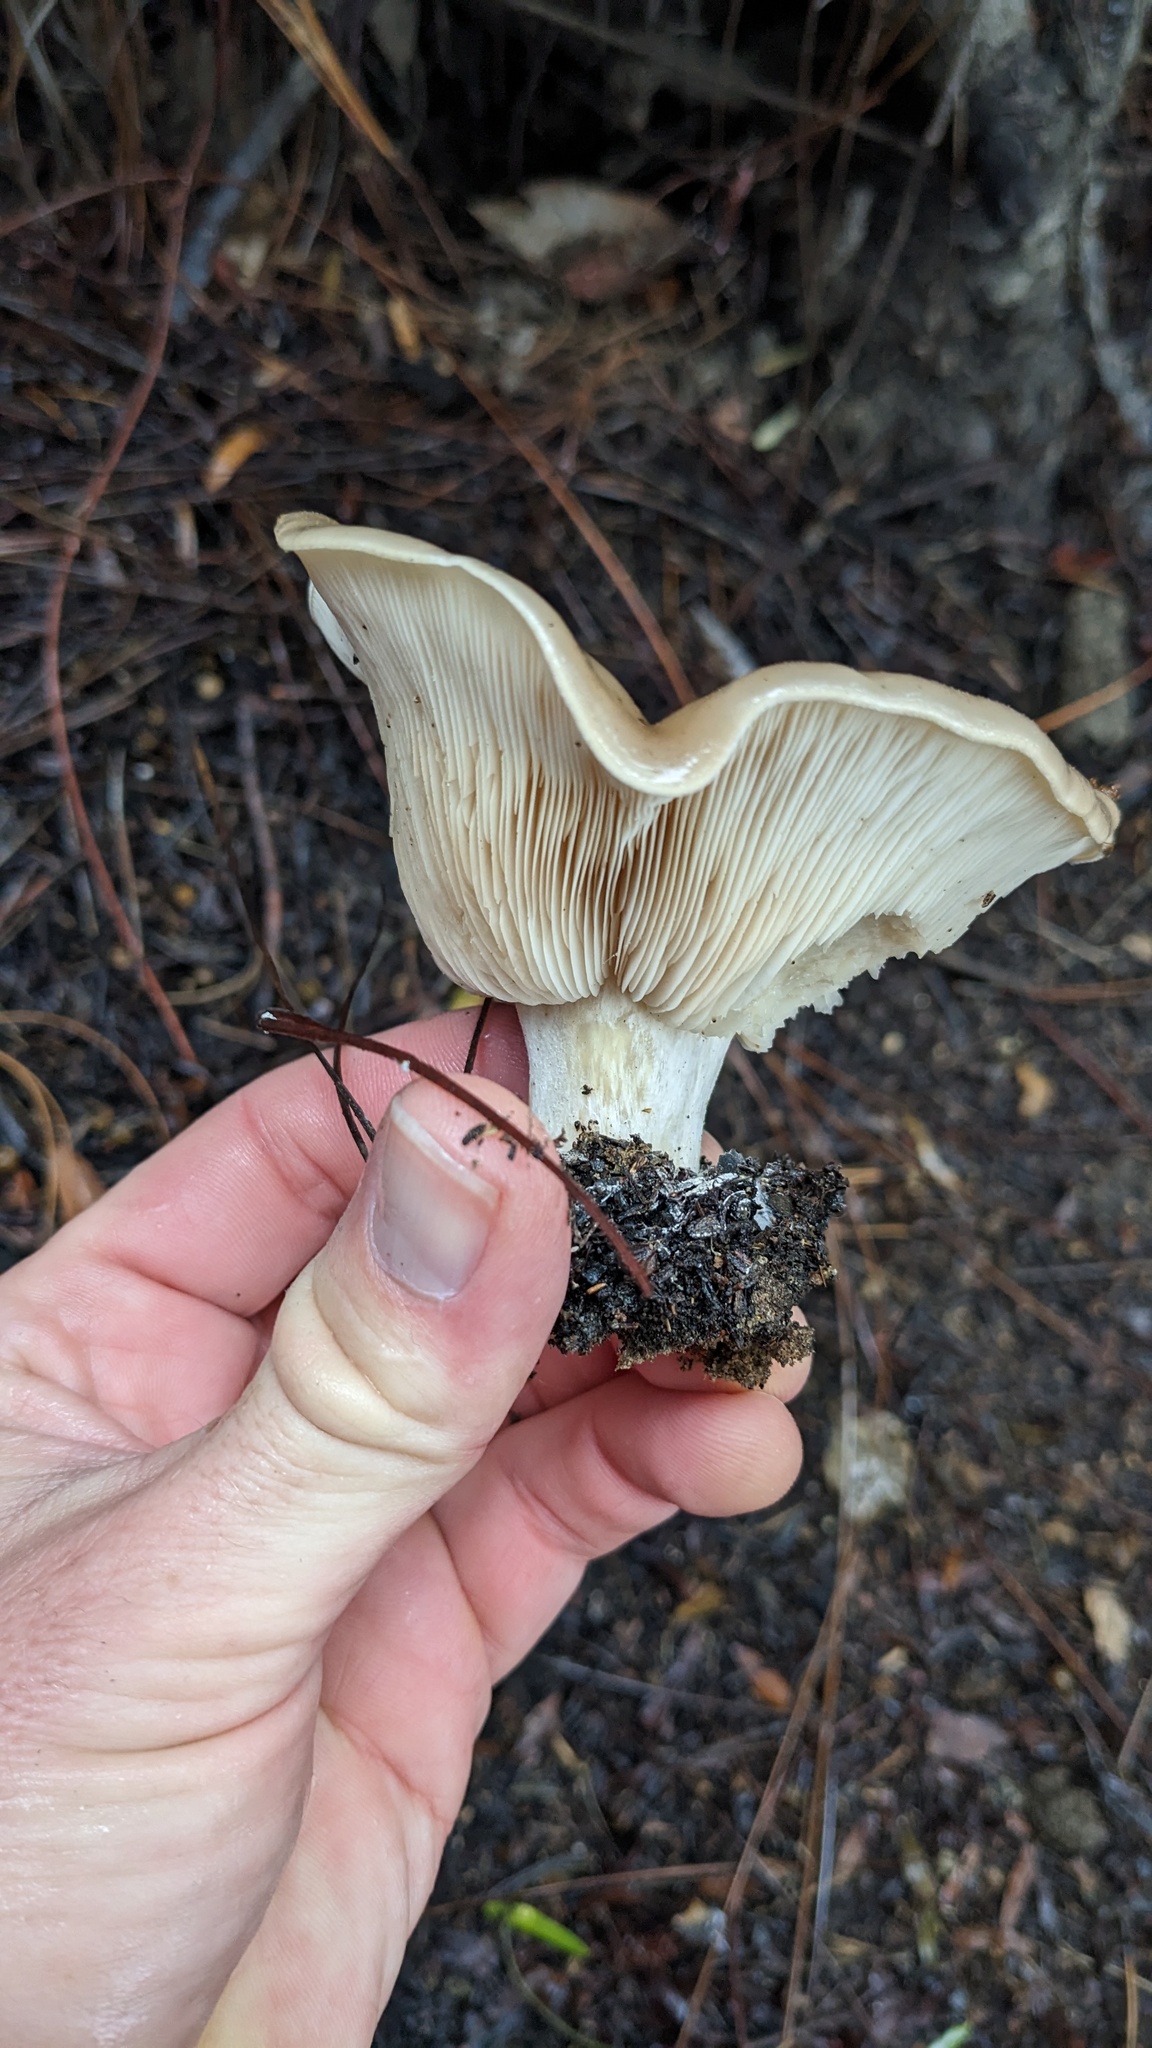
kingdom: Fungi
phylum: Basidiomycota
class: Agaricomycetes
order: Agaricales
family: Tricholomataceae
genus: Collybia
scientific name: Collybia
